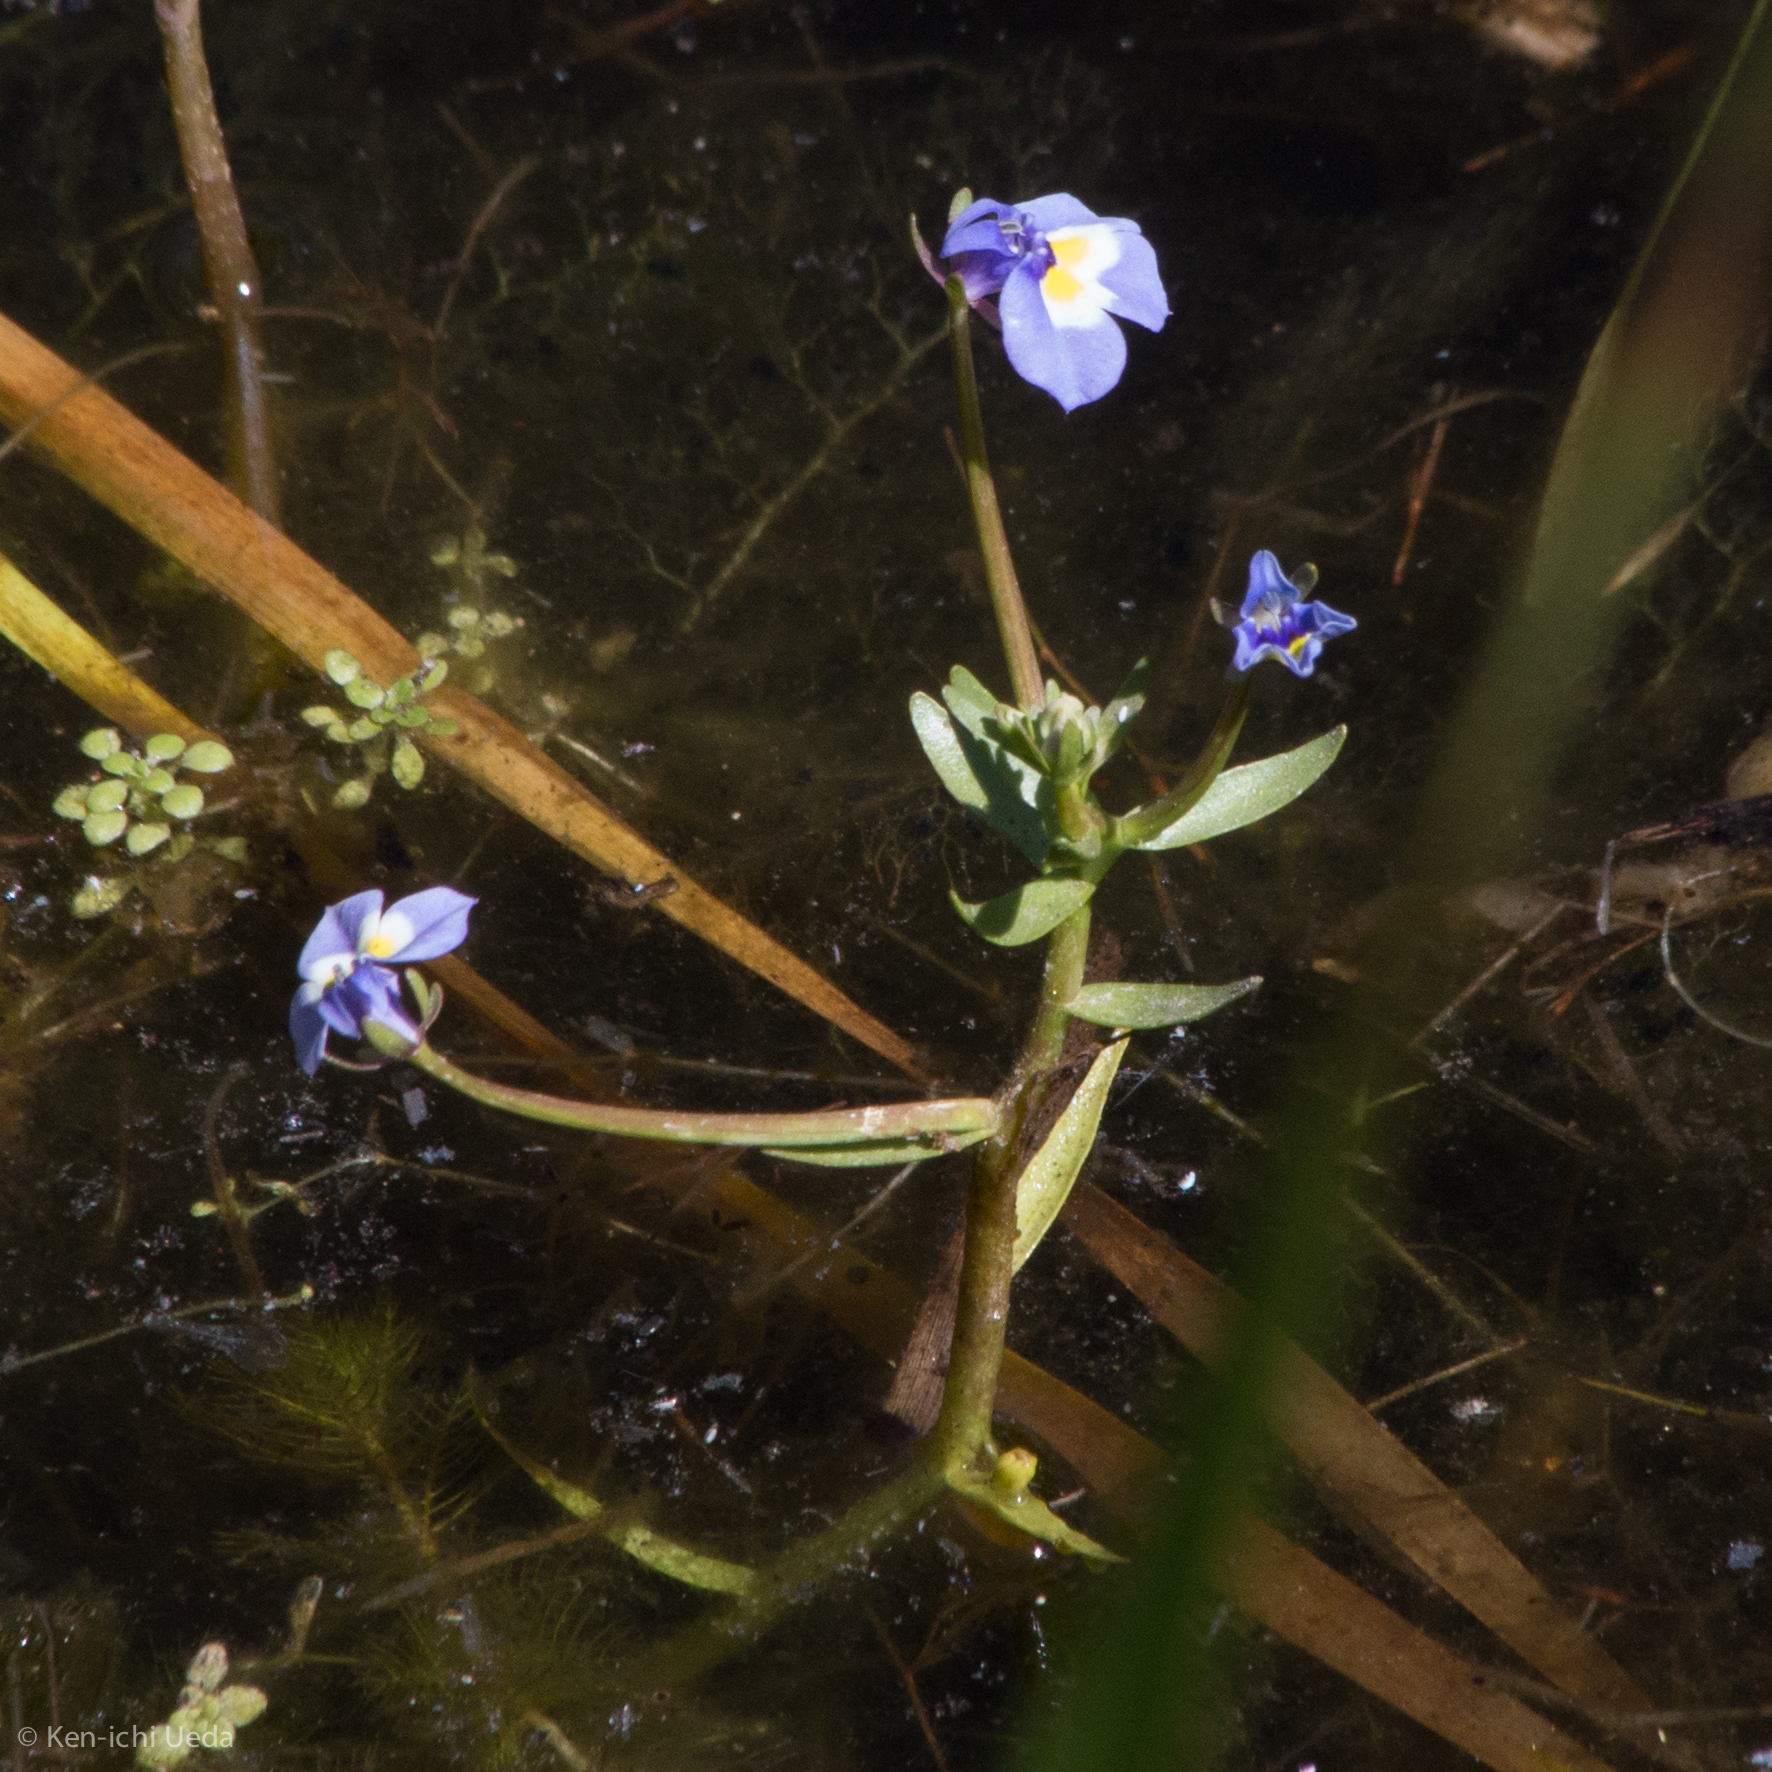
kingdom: Plantae
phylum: Tracheophyta
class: Magnoliopsida
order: Asterales
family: Campanulaceae
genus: Downingia
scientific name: Downingia bicornuta
